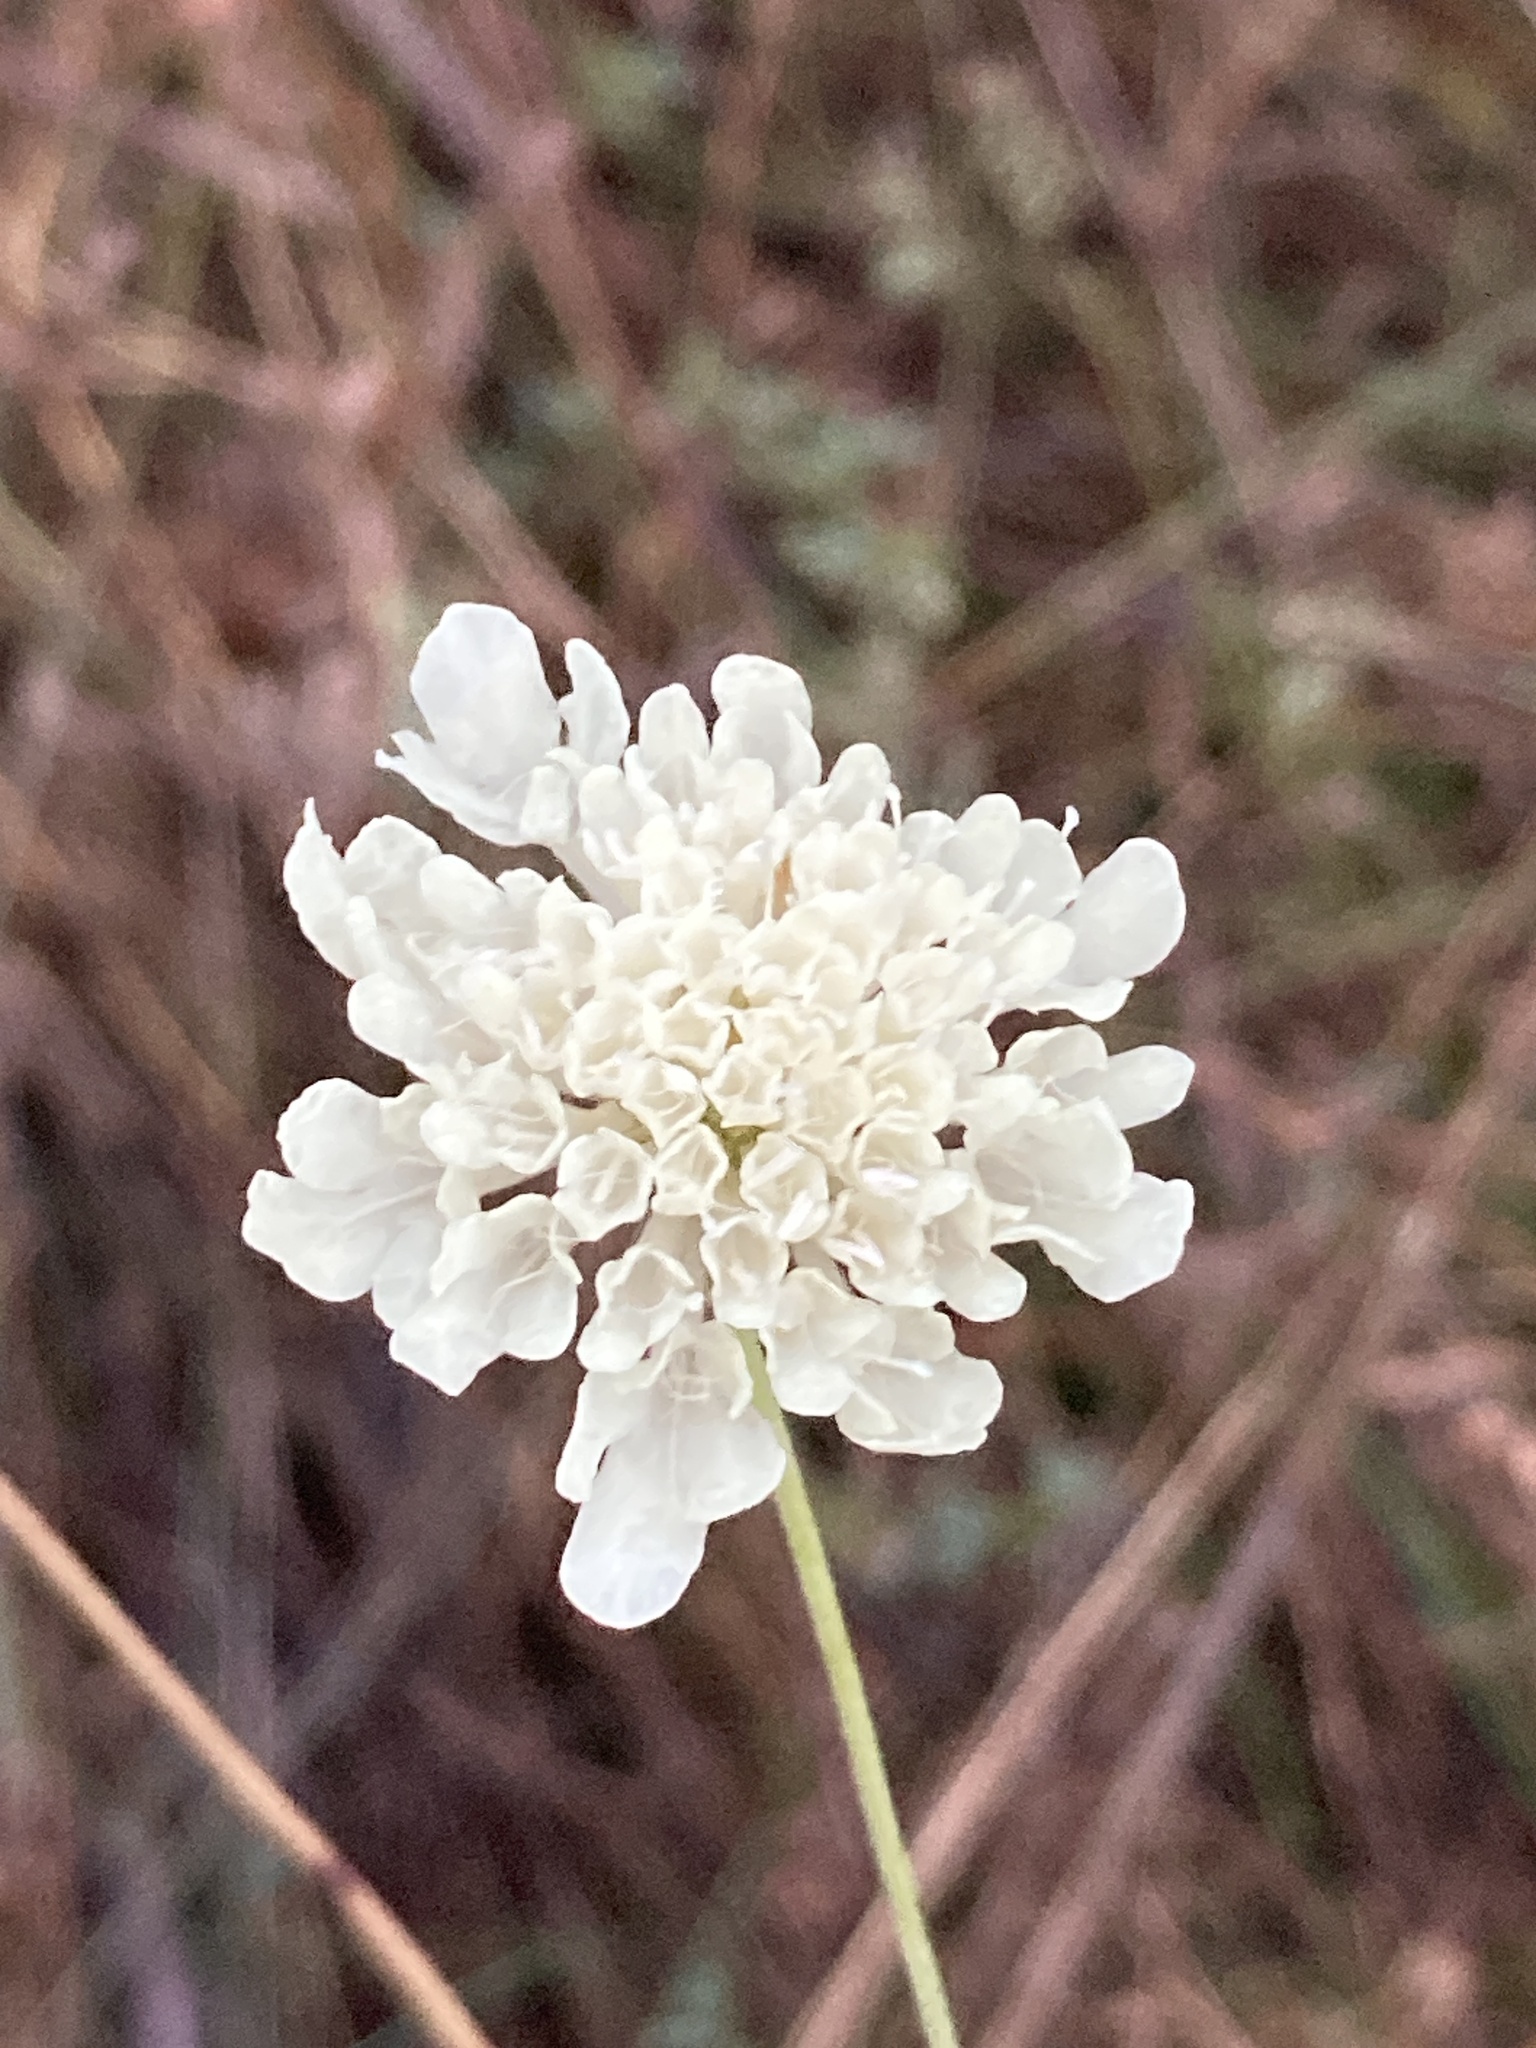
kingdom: Plantae
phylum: Tracheophyta
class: Magnoliopsida
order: Dipsacales
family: Caprifoliaceae
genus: Scabiosa
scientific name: Scabiosa ochroleuca
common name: Cream pincushions
